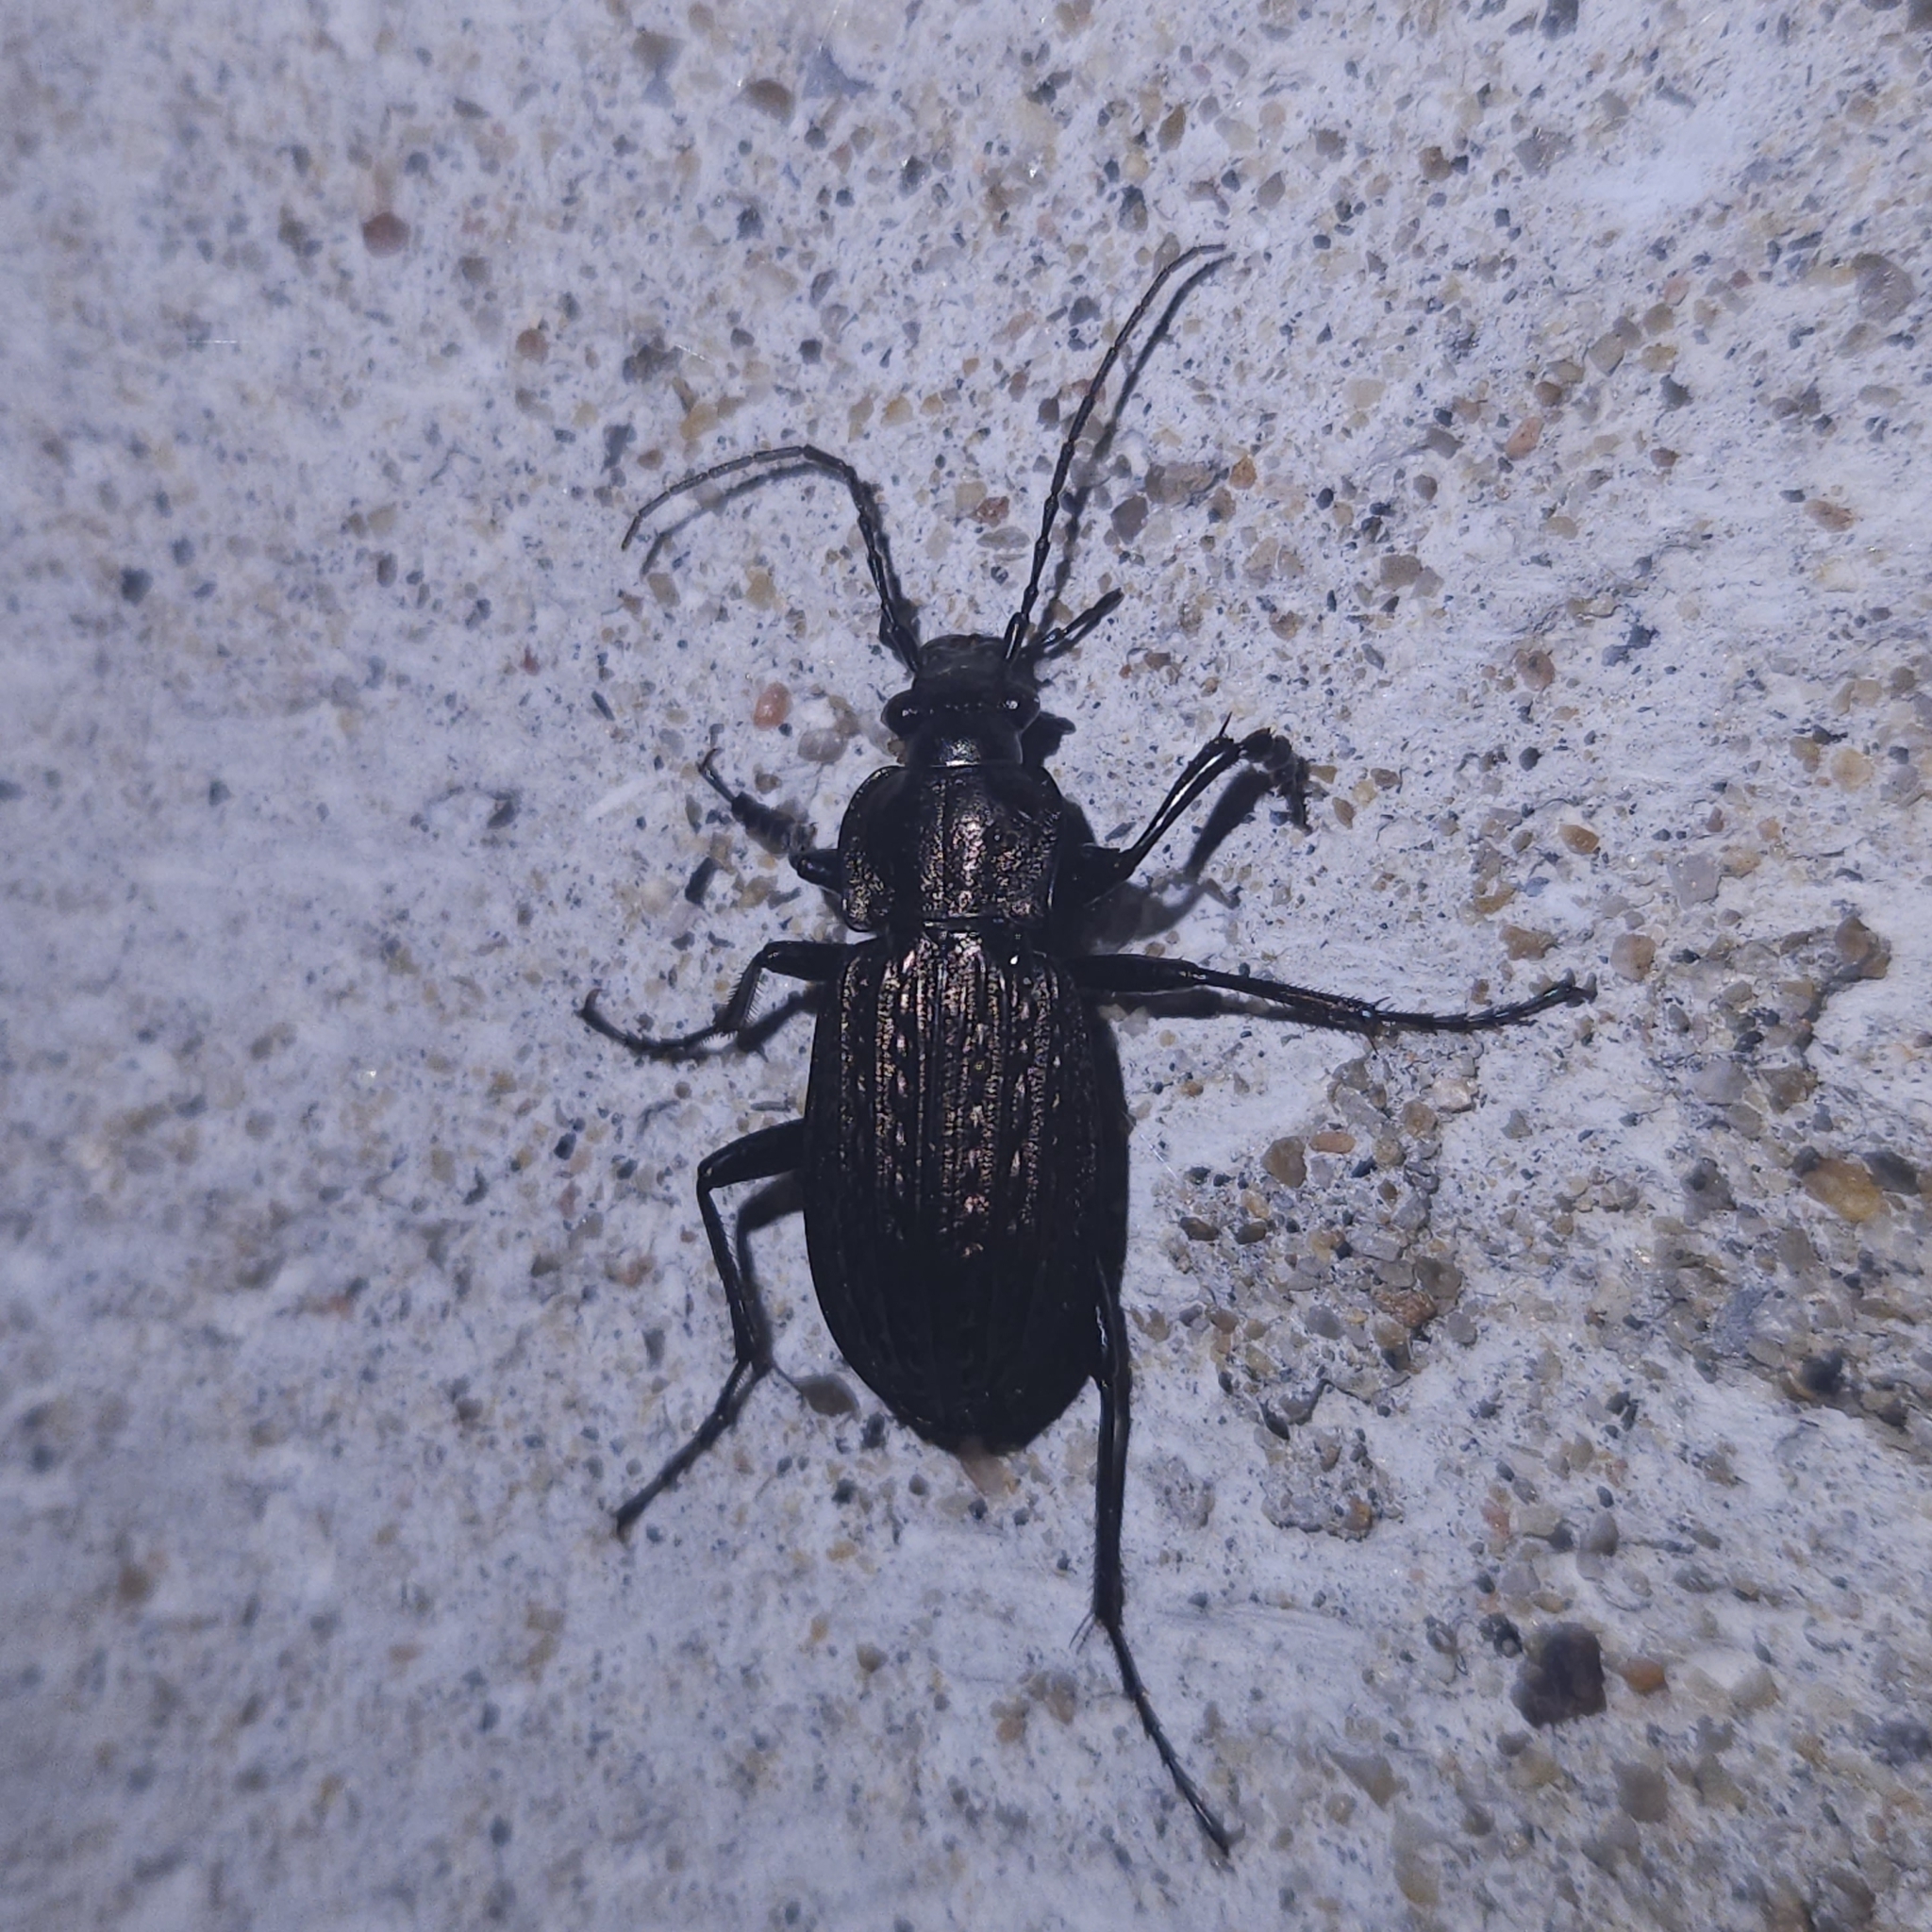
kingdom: Animalia
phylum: Arthropoda
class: Insecta
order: Coleoptera
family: Carabidae
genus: Carabus
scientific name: Carabus granulatus
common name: Granulate ground beetle
